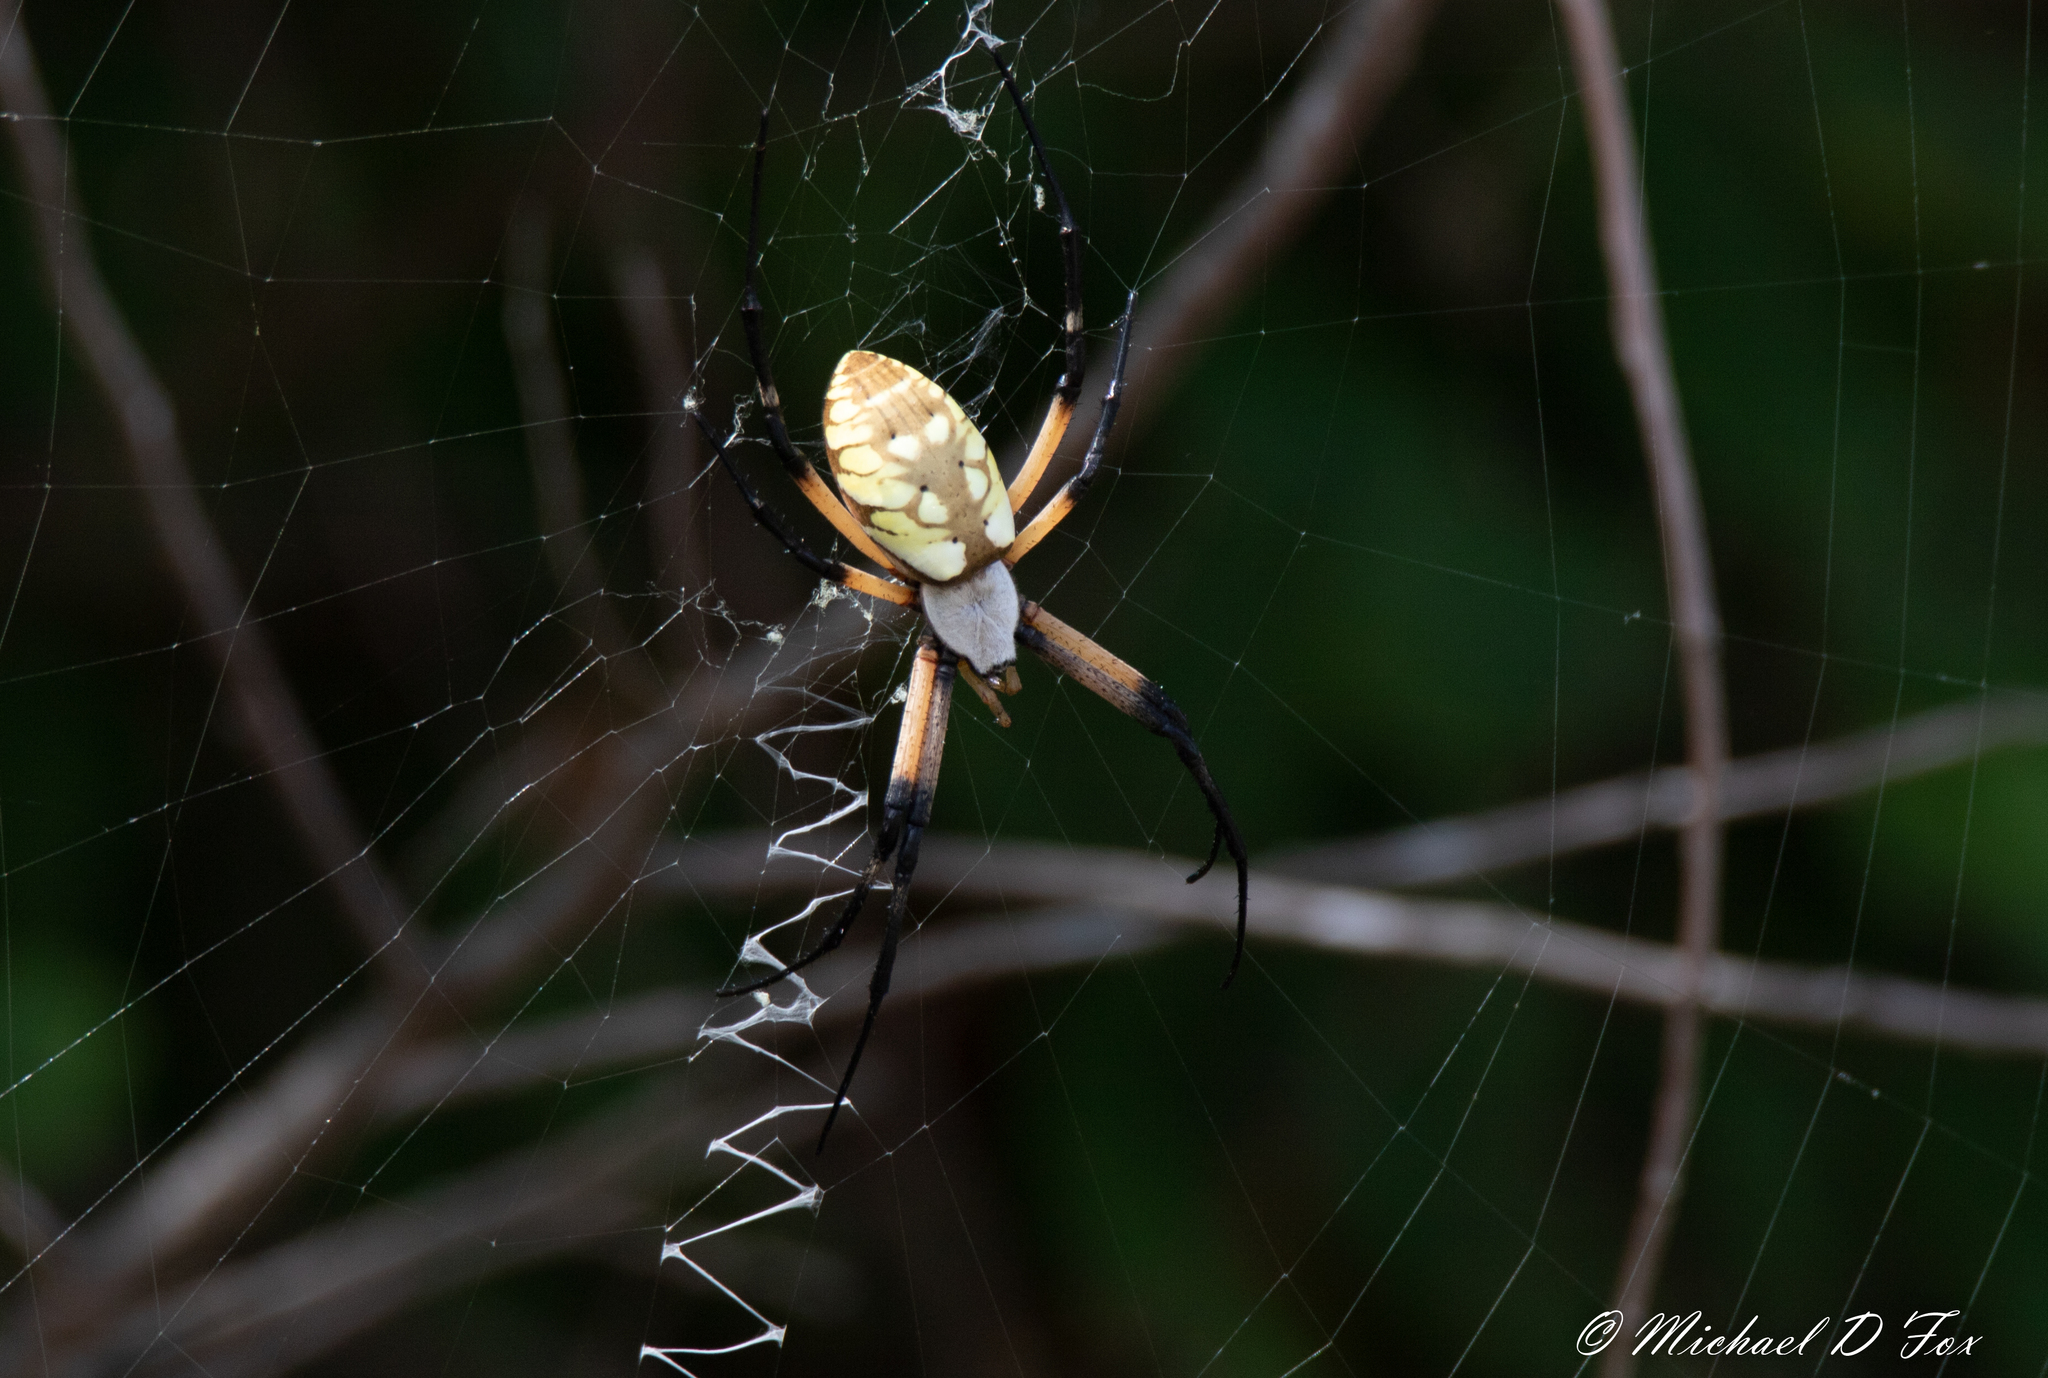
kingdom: Animalia
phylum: Arthropoda
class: Arachnida
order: Araneae
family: Araneidae
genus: Argiope
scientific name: Argiope aurantia
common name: Orb weavers
